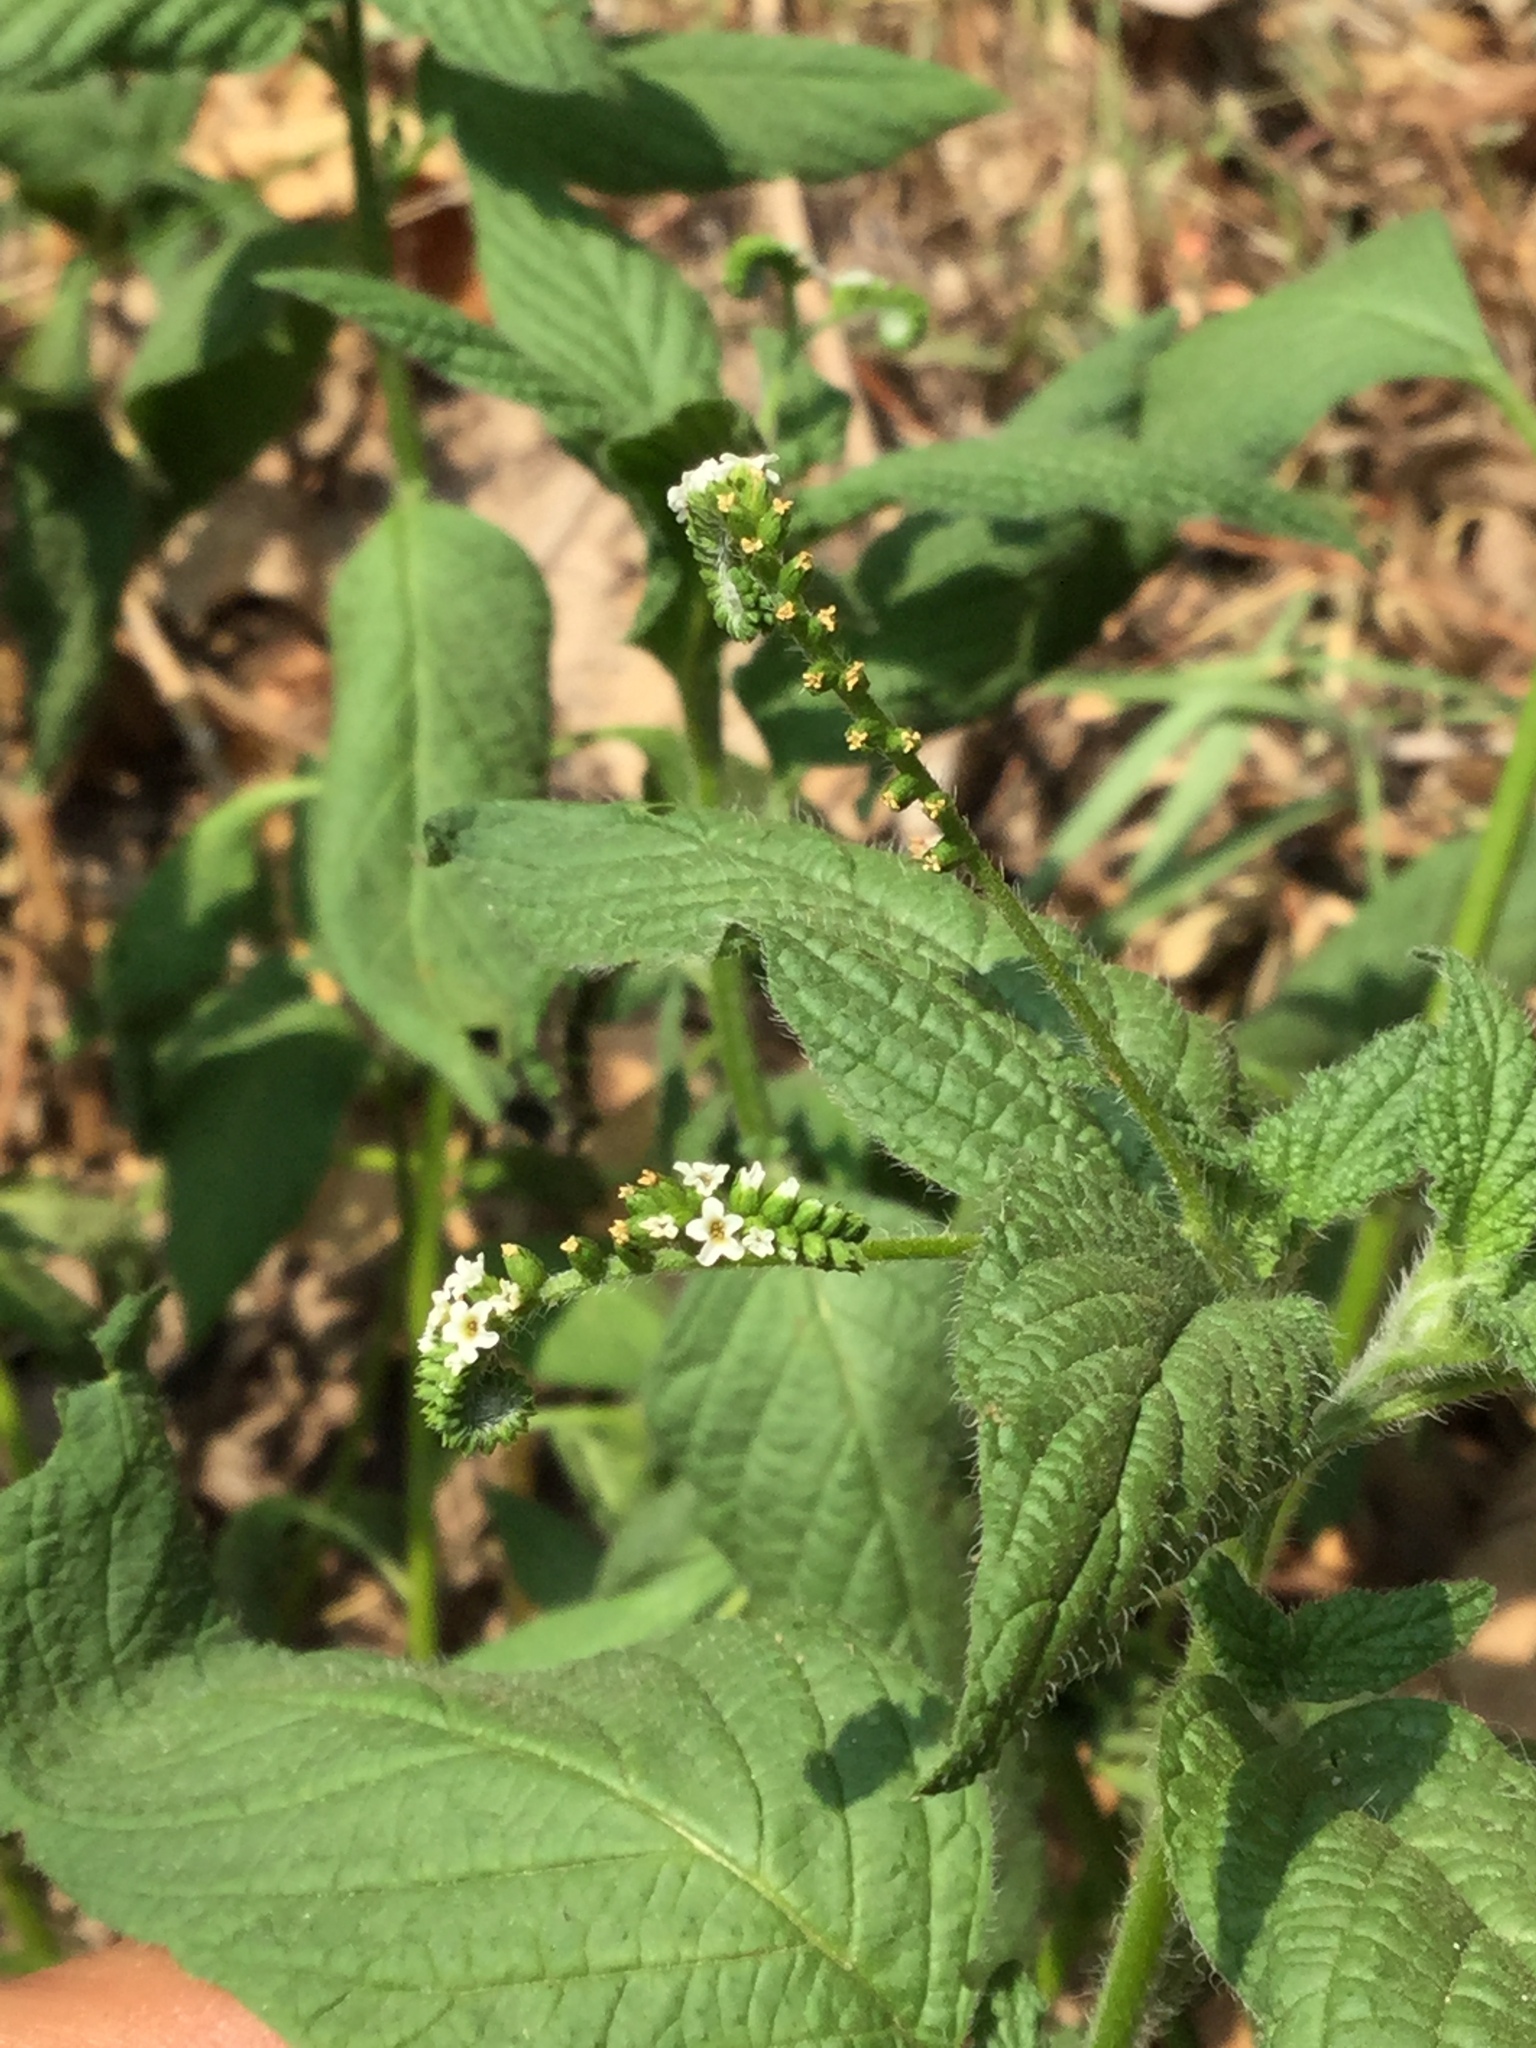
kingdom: Plantae
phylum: Tracheophyta
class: Magnoliopsida
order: Boraginales
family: Heliotropiaceae
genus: Heliotropium
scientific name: Heliotropium angiospermum
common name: Eye bright
